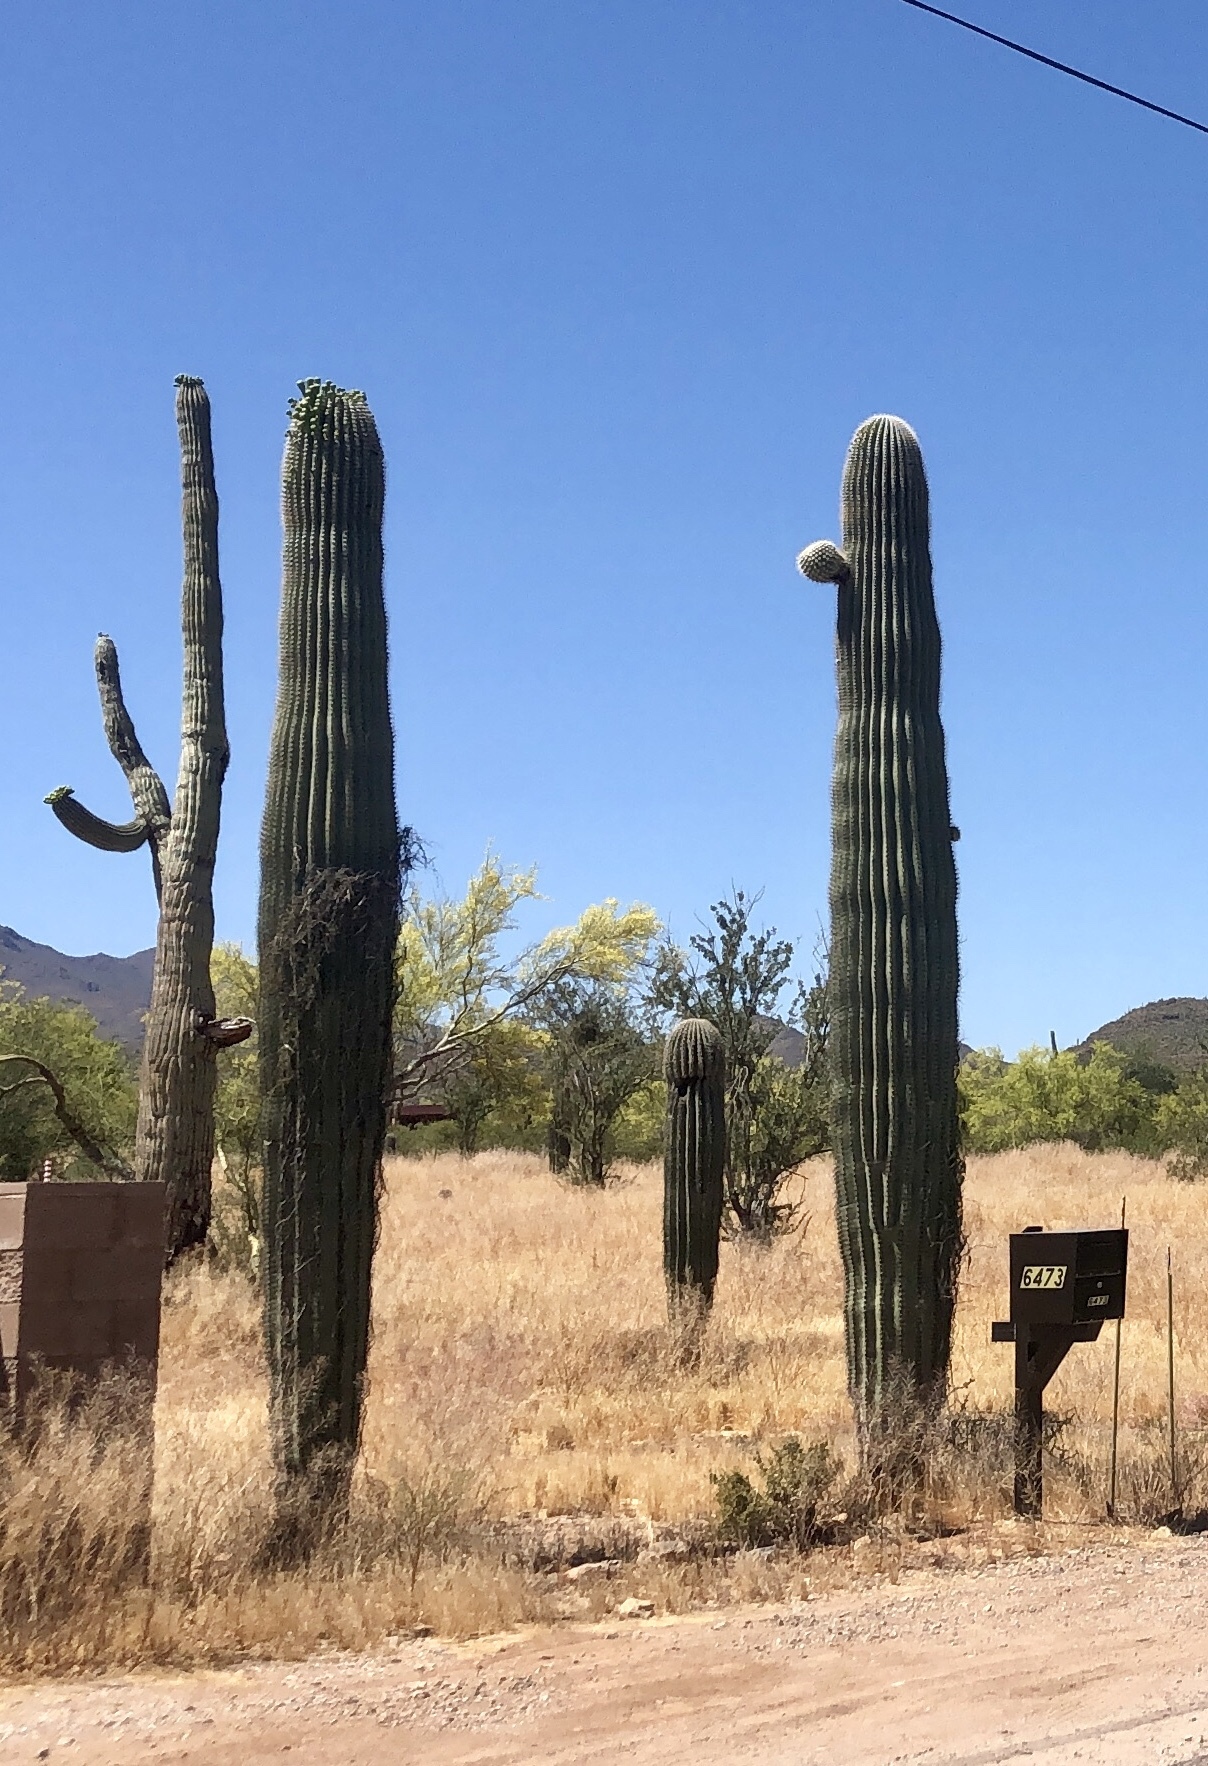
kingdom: Plantae
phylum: Tracheophyta
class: Magnoliopsida
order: Caryophyllales
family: Cactaceae
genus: Carnegiea
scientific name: Carnegiea gigantea
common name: Saguaro
